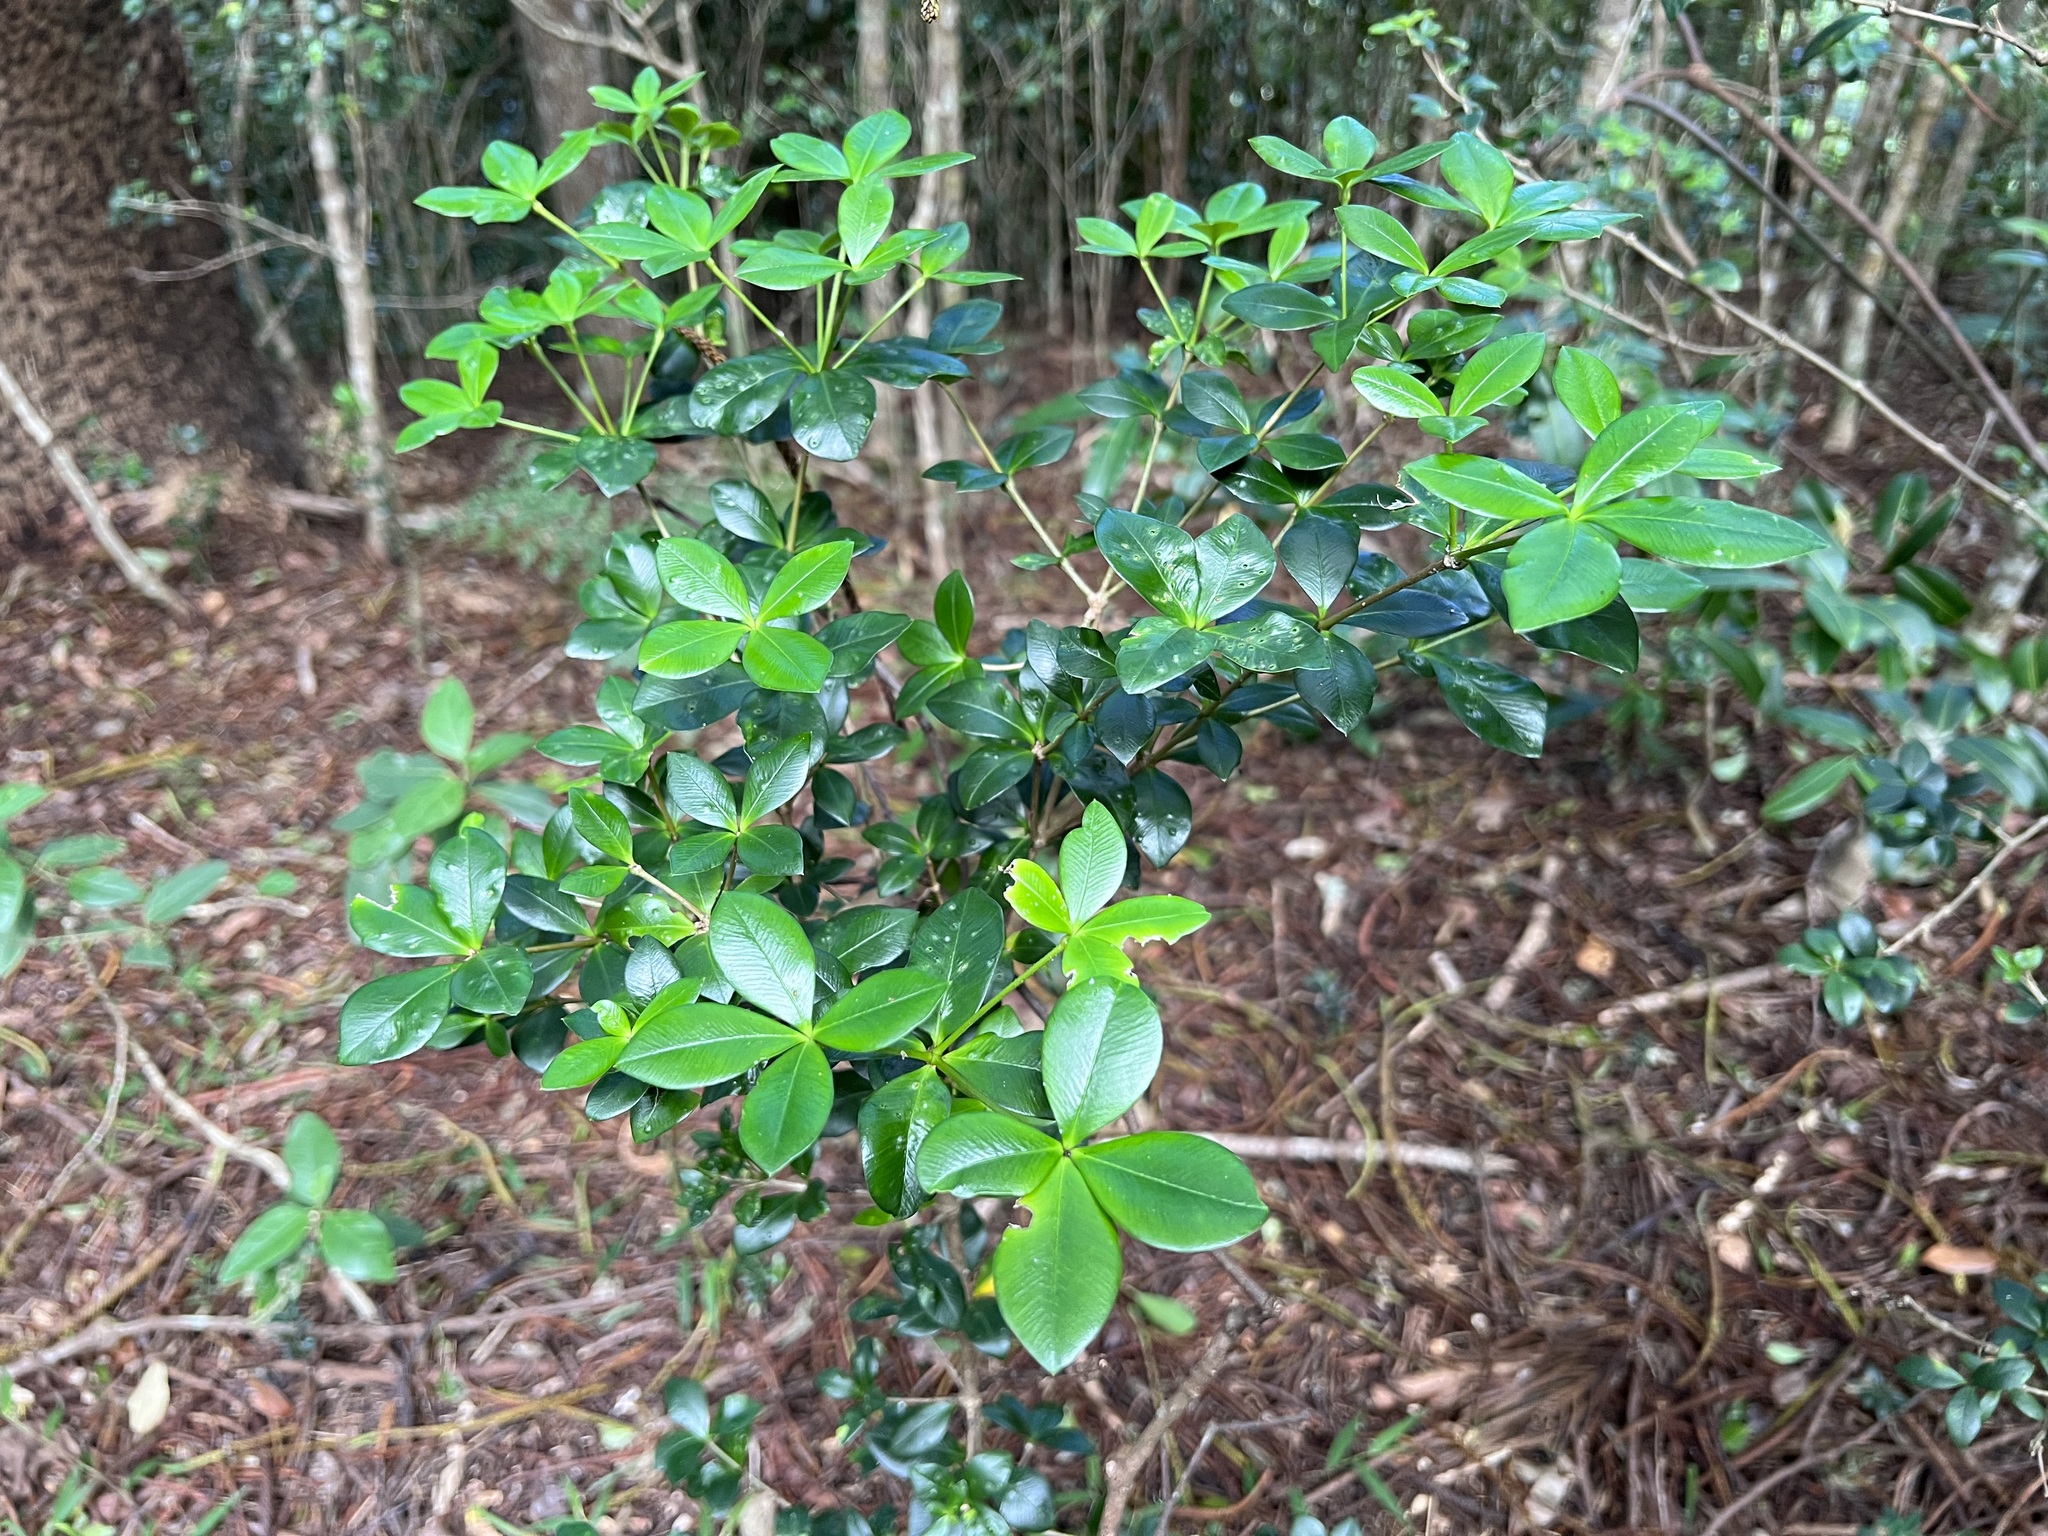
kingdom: Plantae
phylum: Tracheophyta
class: Magnoliopsida
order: Gentianales
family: Apocynaceae
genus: Alyxia
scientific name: Alyxia gynopogon
